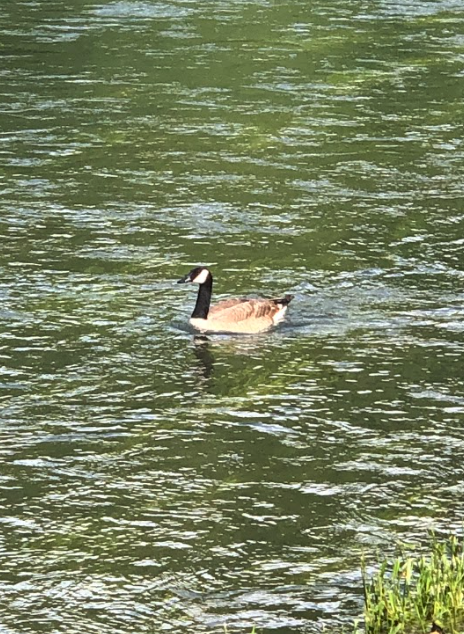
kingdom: Animalia
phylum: Chordata
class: Aves
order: Anseriformes
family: Anatidae
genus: Branta
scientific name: Branta canadensis
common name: Canada goose
